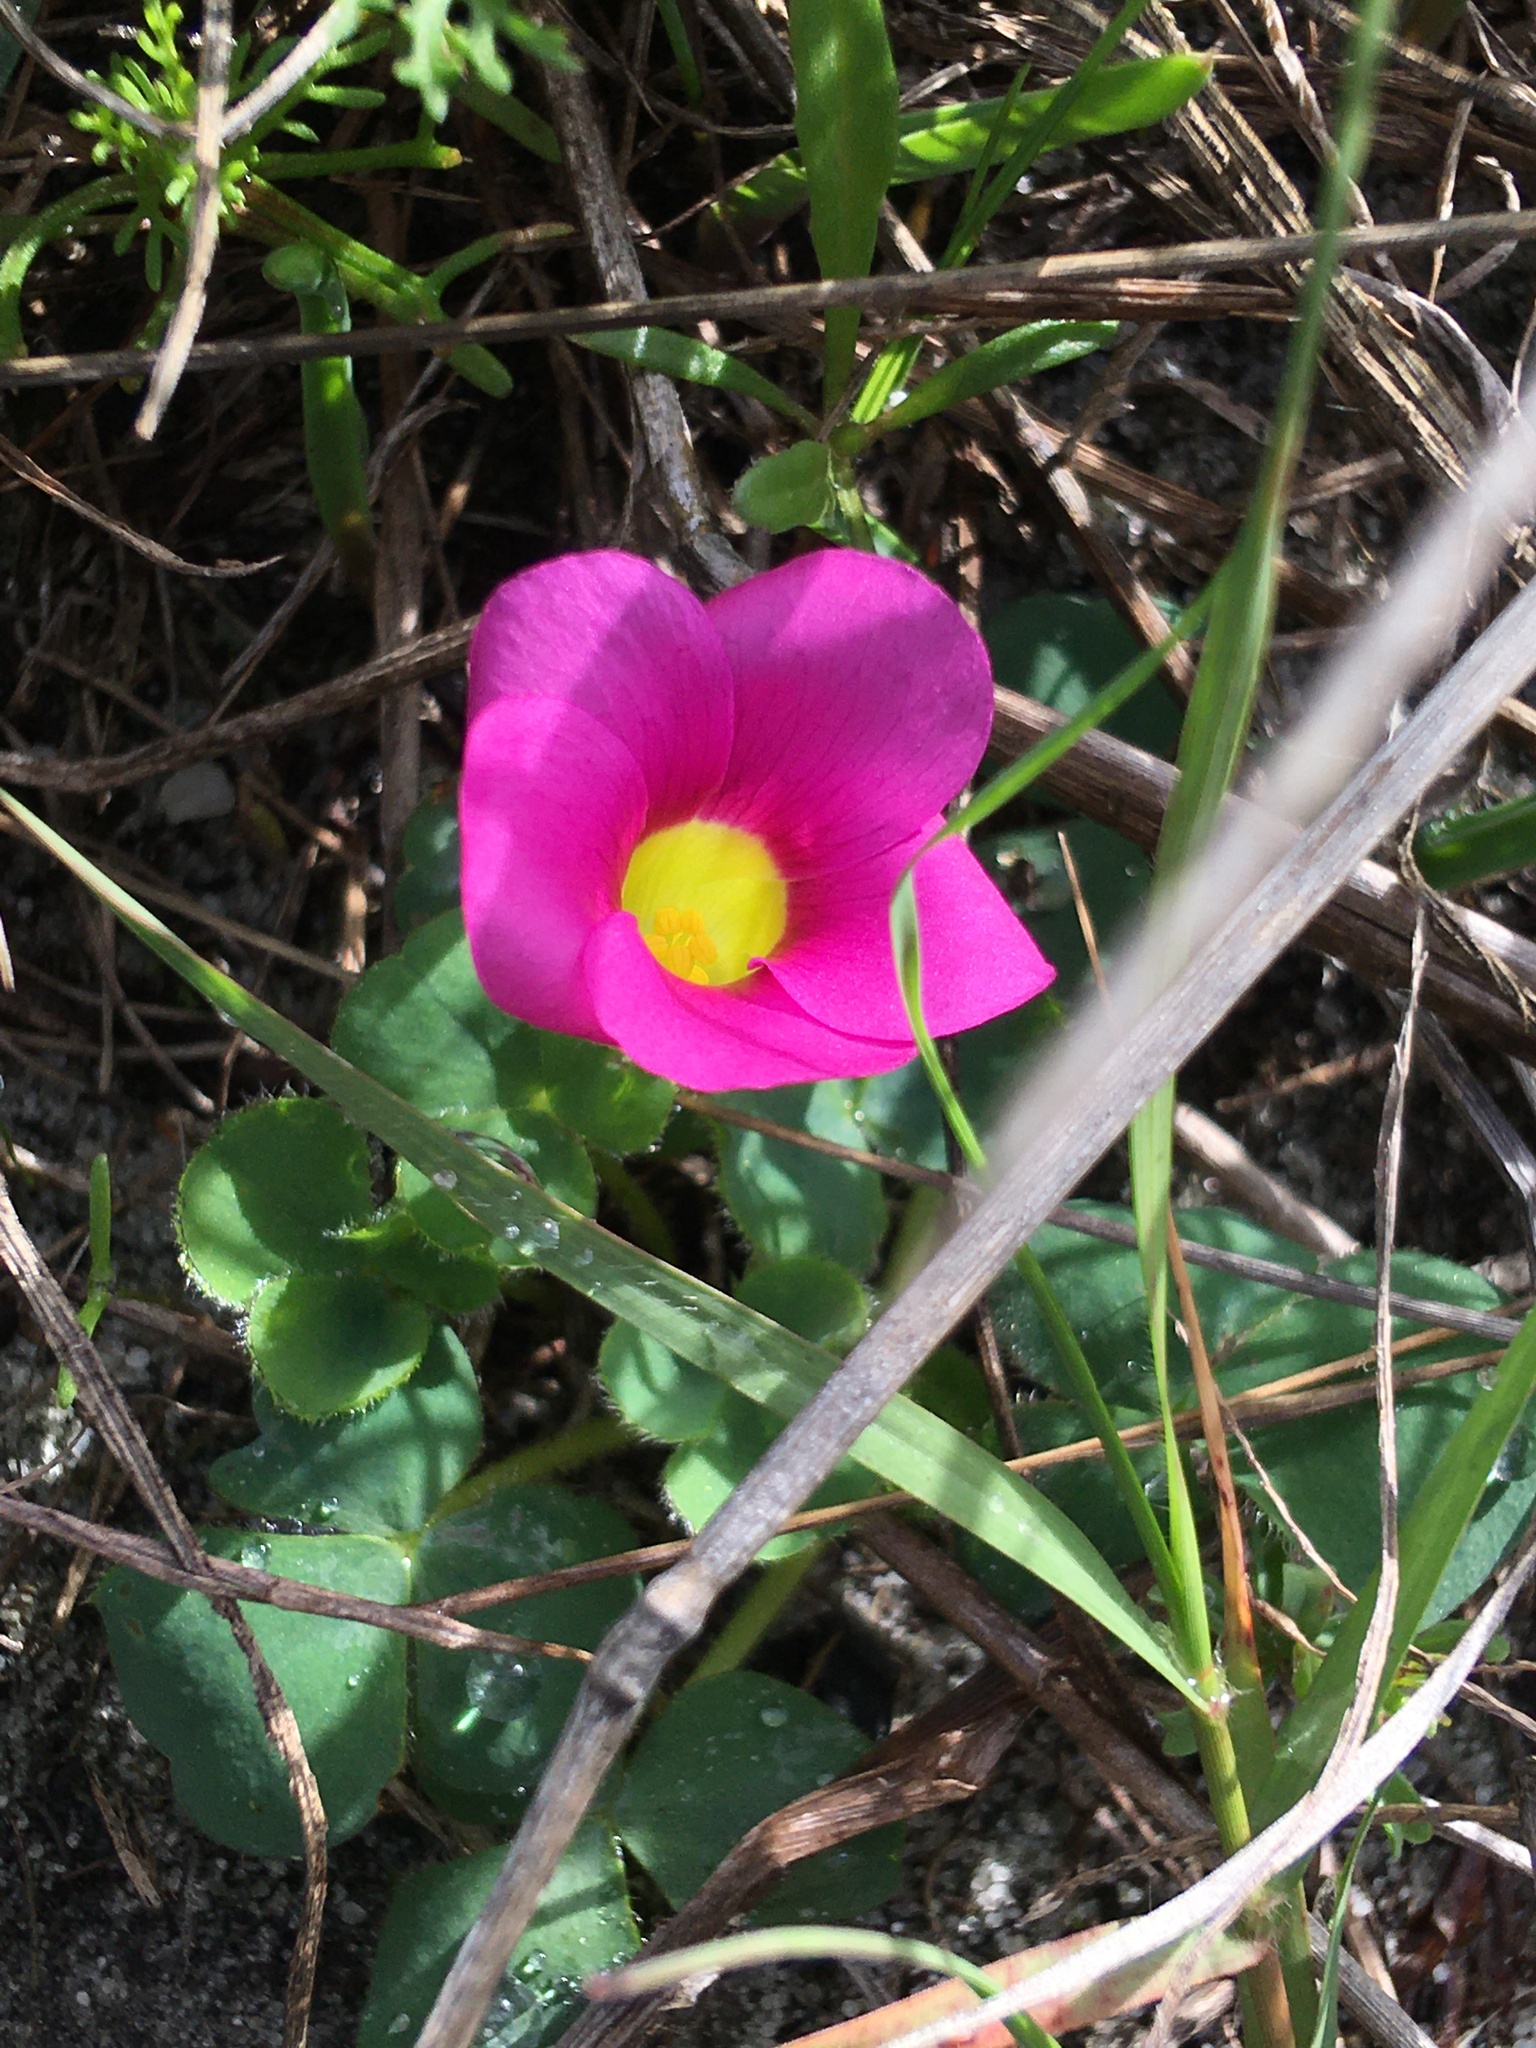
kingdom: Plantae
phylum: Tracheophyta
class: Magnoliopsida
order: Oxalidales
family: Oxalidaceae
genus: Oxalis
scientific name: Oxalis purpurea
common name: Purple woodsorrel
